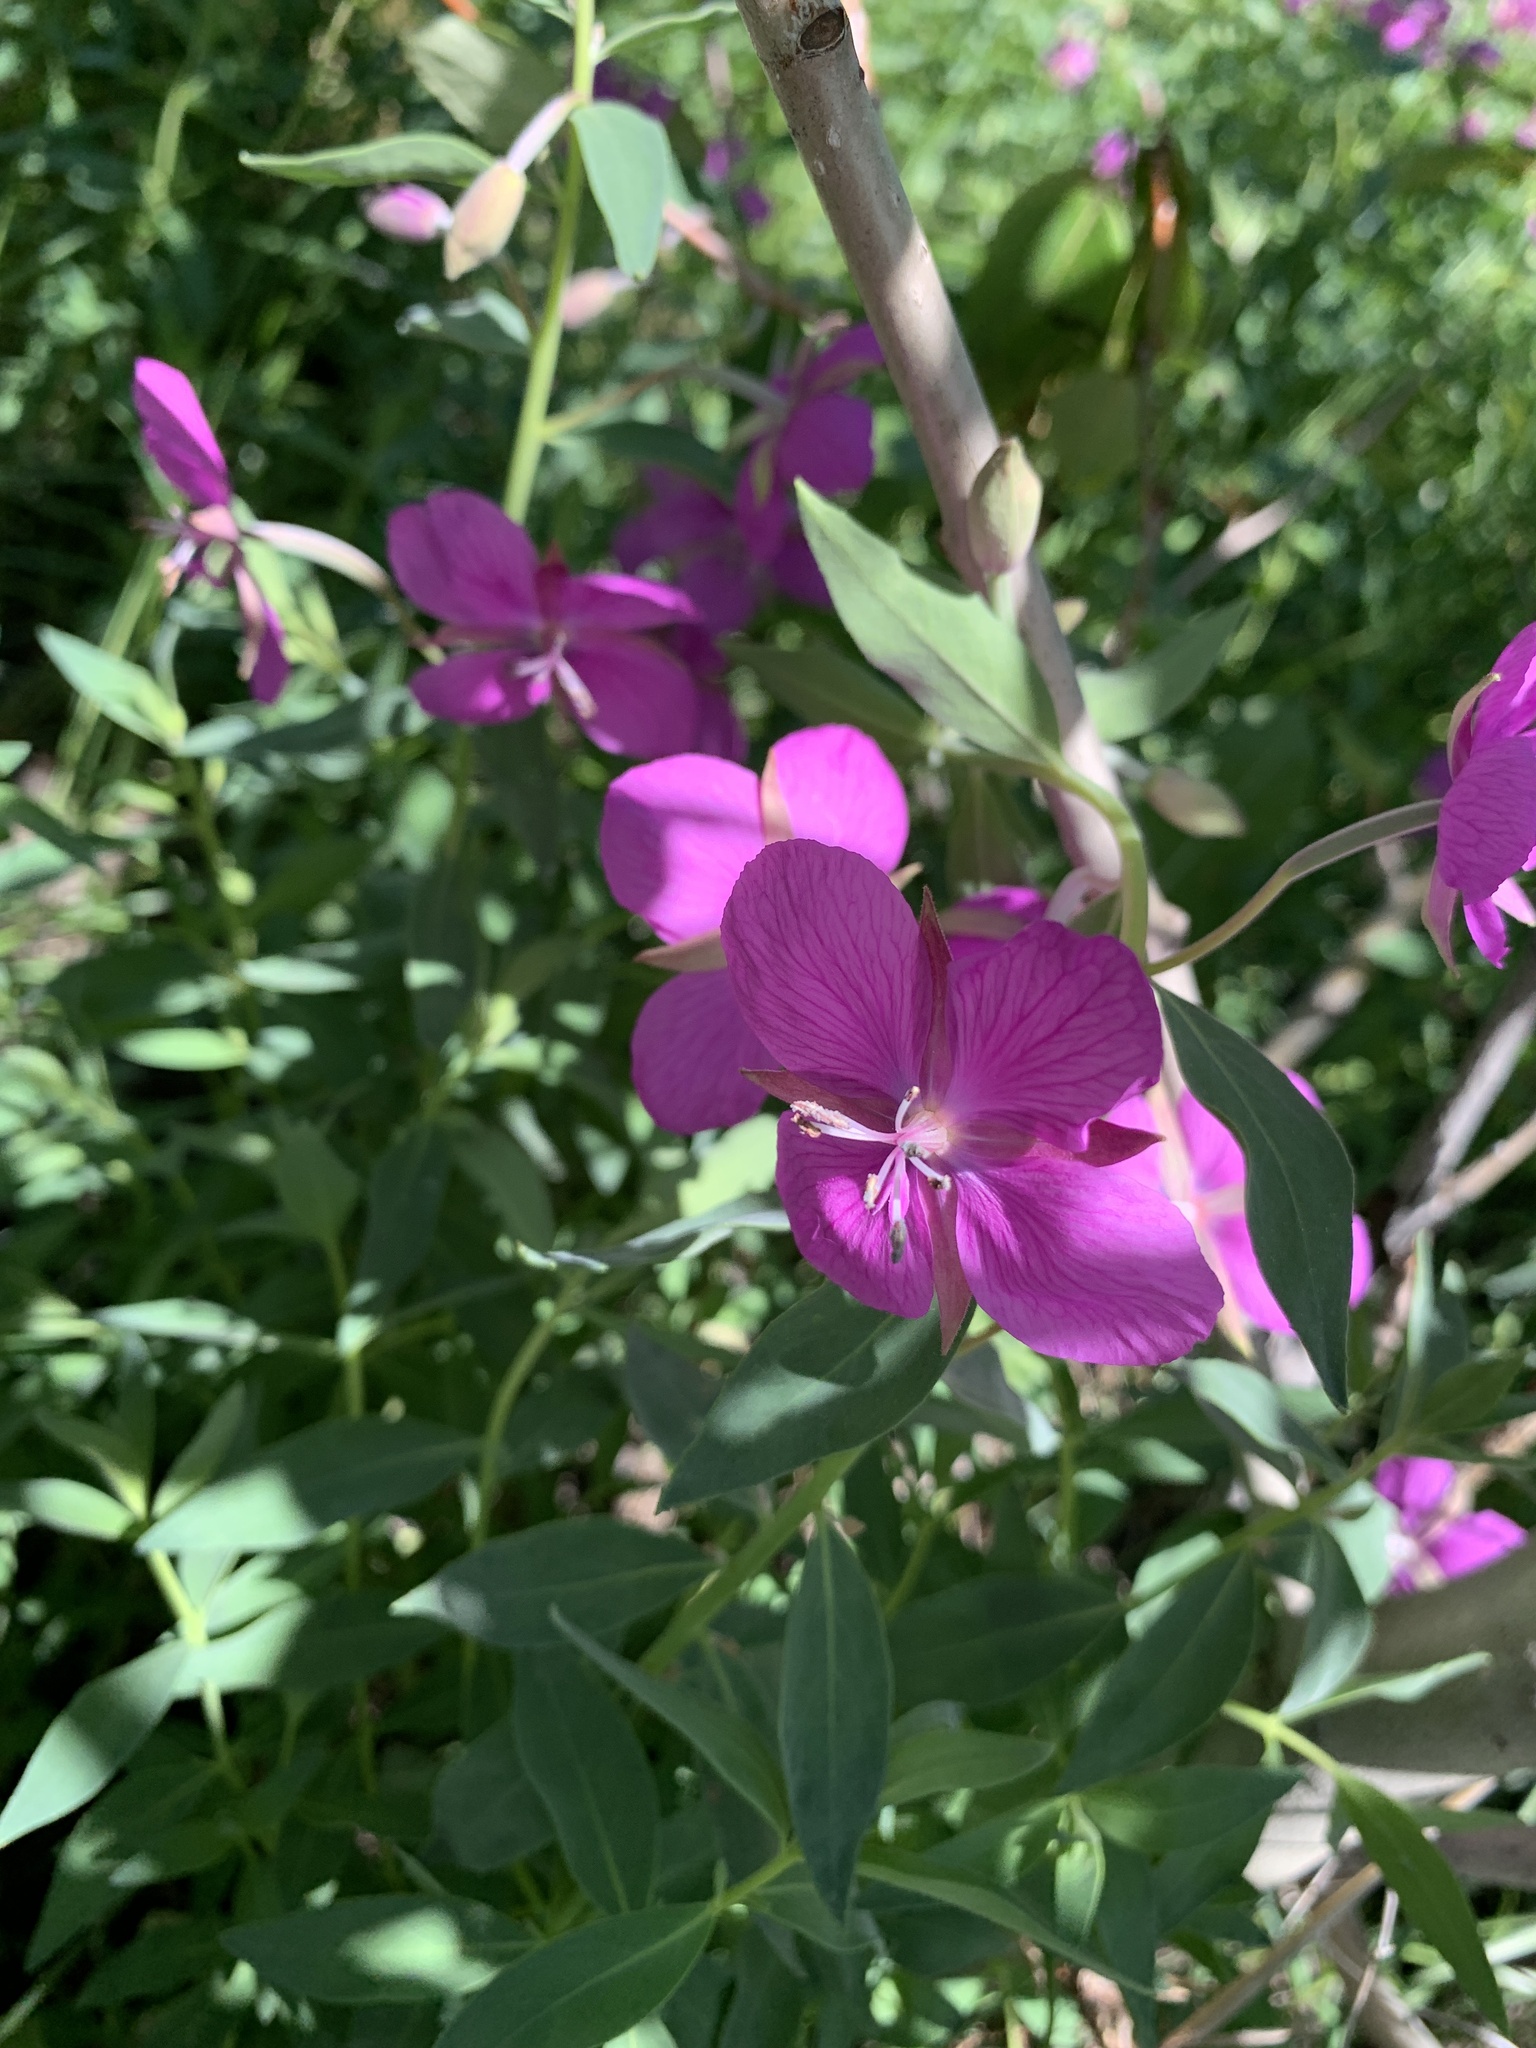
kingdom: Plantae
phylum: Tracheophyta
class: Magnoliopsida
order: Myrtales
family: Onagraceae
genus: Chamaenerion
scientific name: Chamaenerion latifolium
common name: Dwarf fireweed
